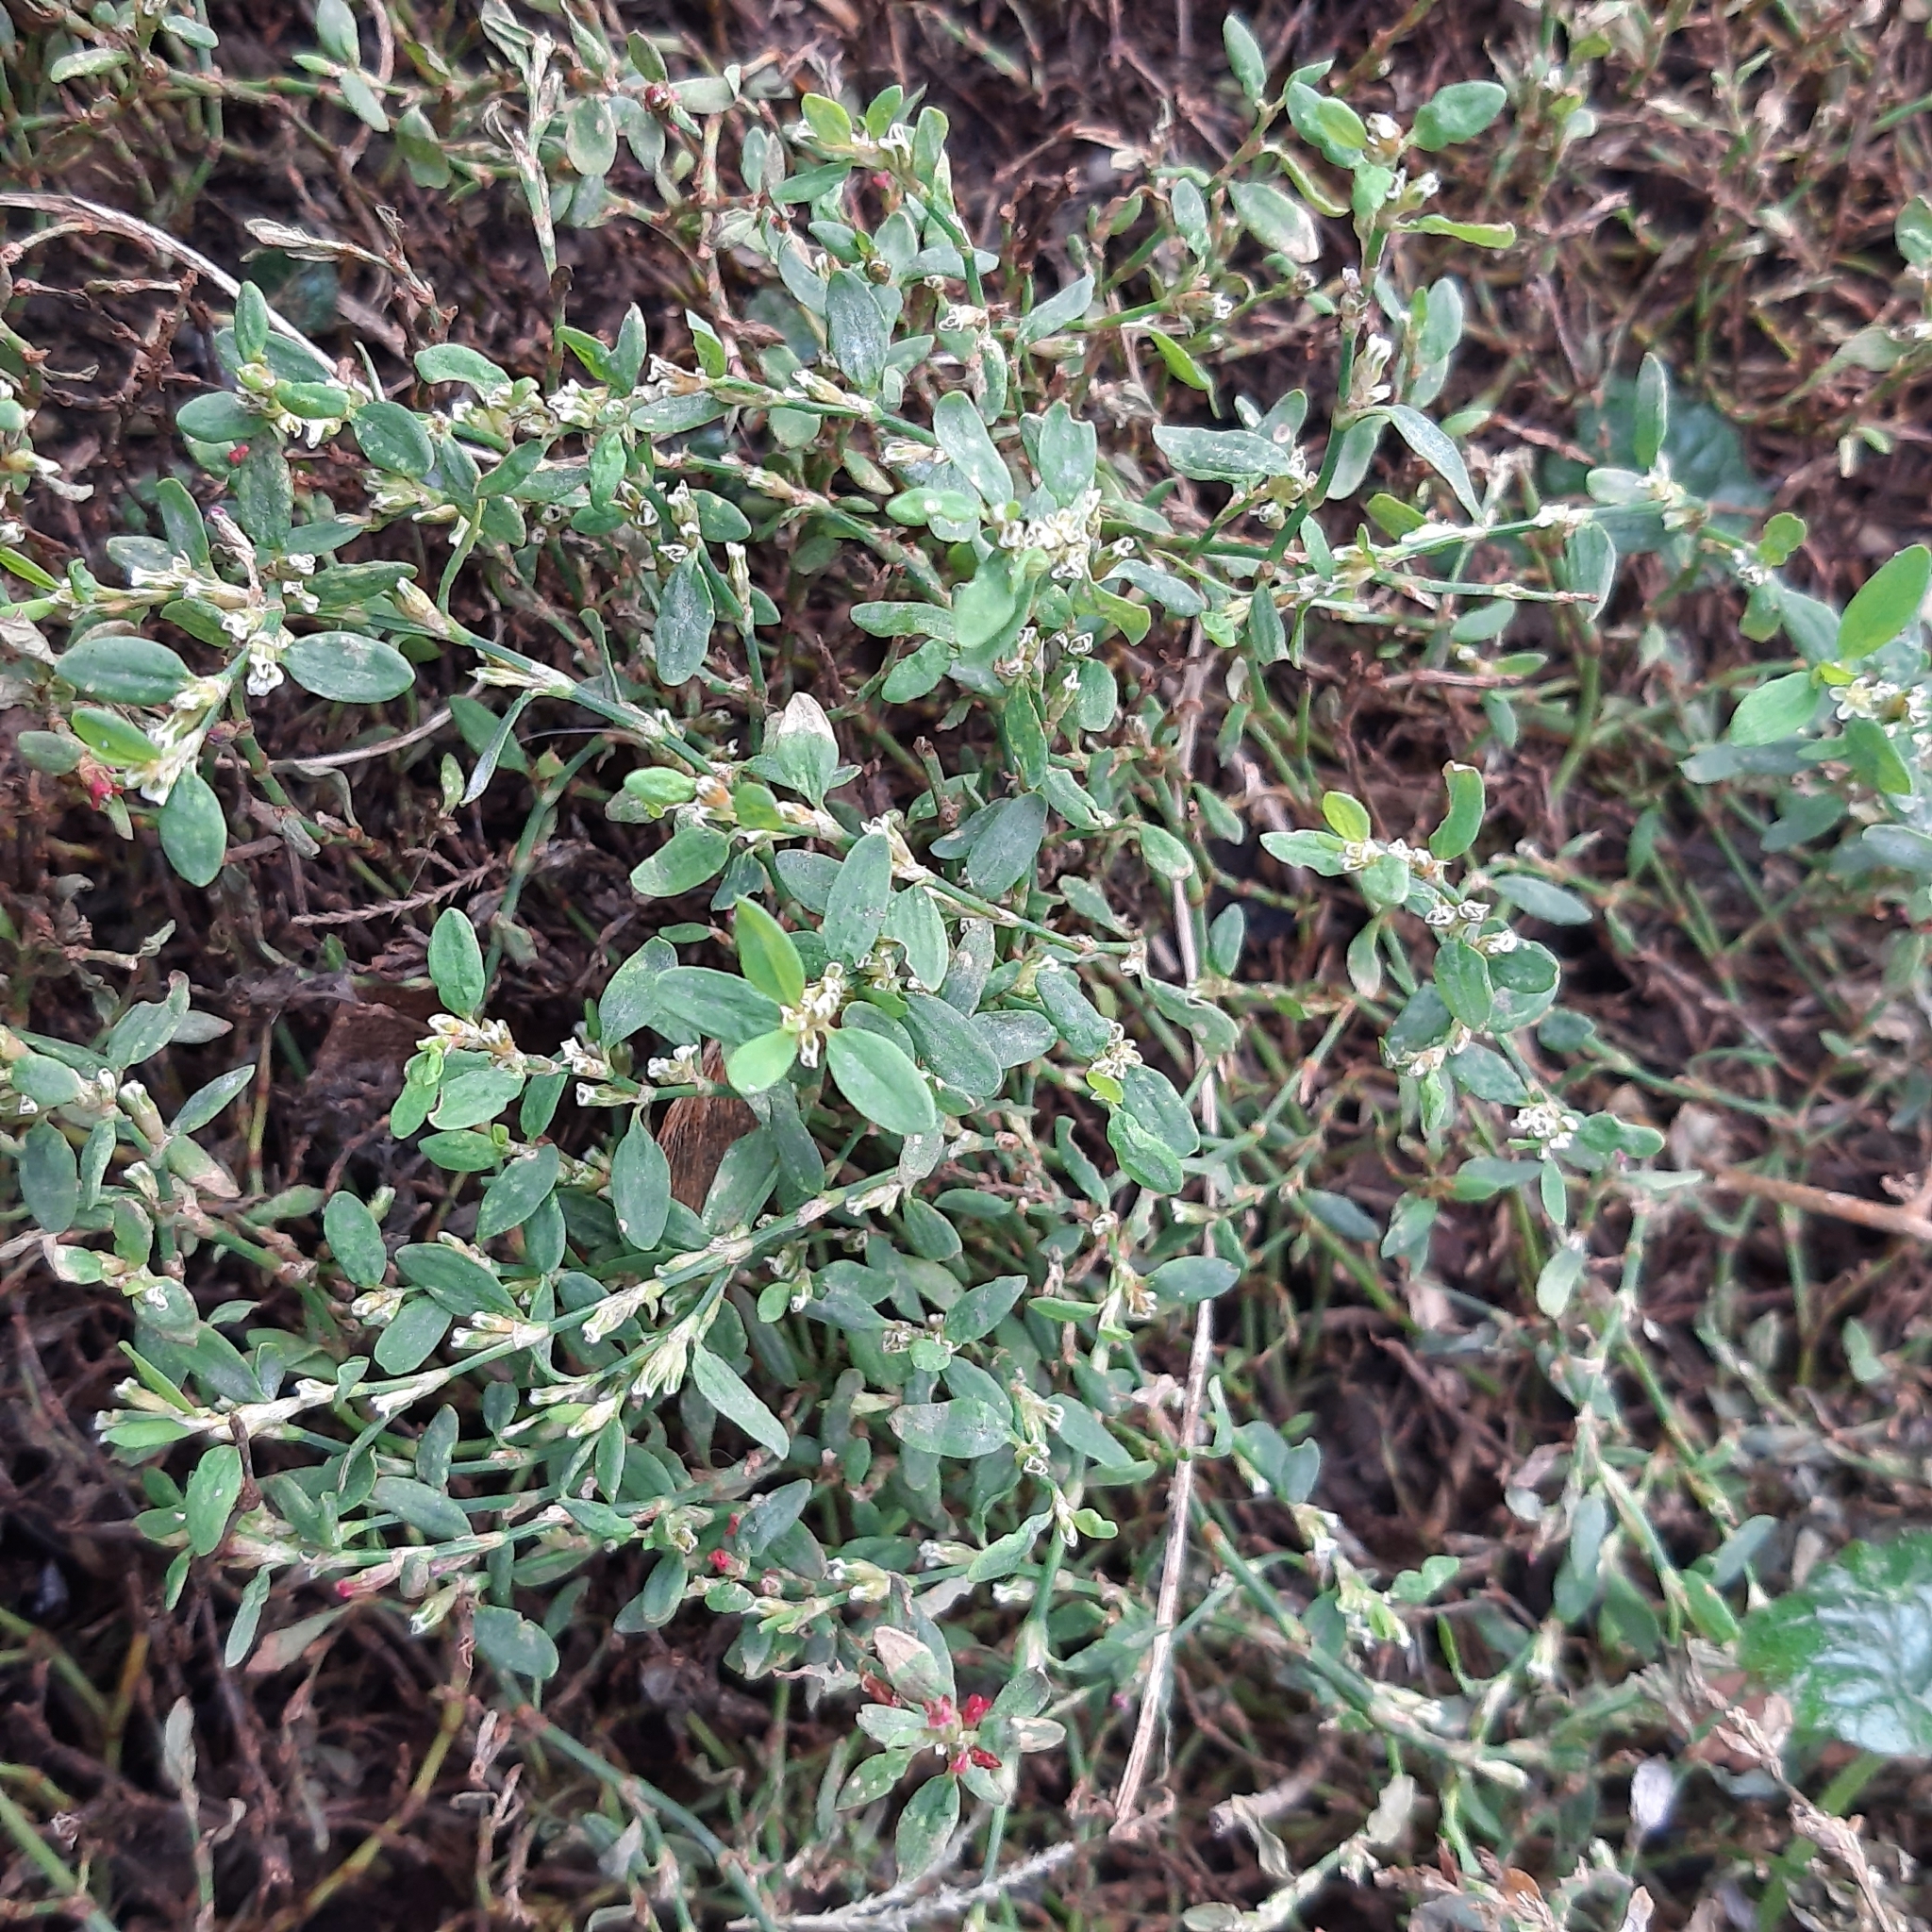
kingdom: Plantae
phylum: Tracheophyta
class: Magnoliopsida
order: Caryophyllales
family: Polygonaceae
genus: Polygonum
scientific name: Polygonum aviculare
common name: Prostrate knotweed
